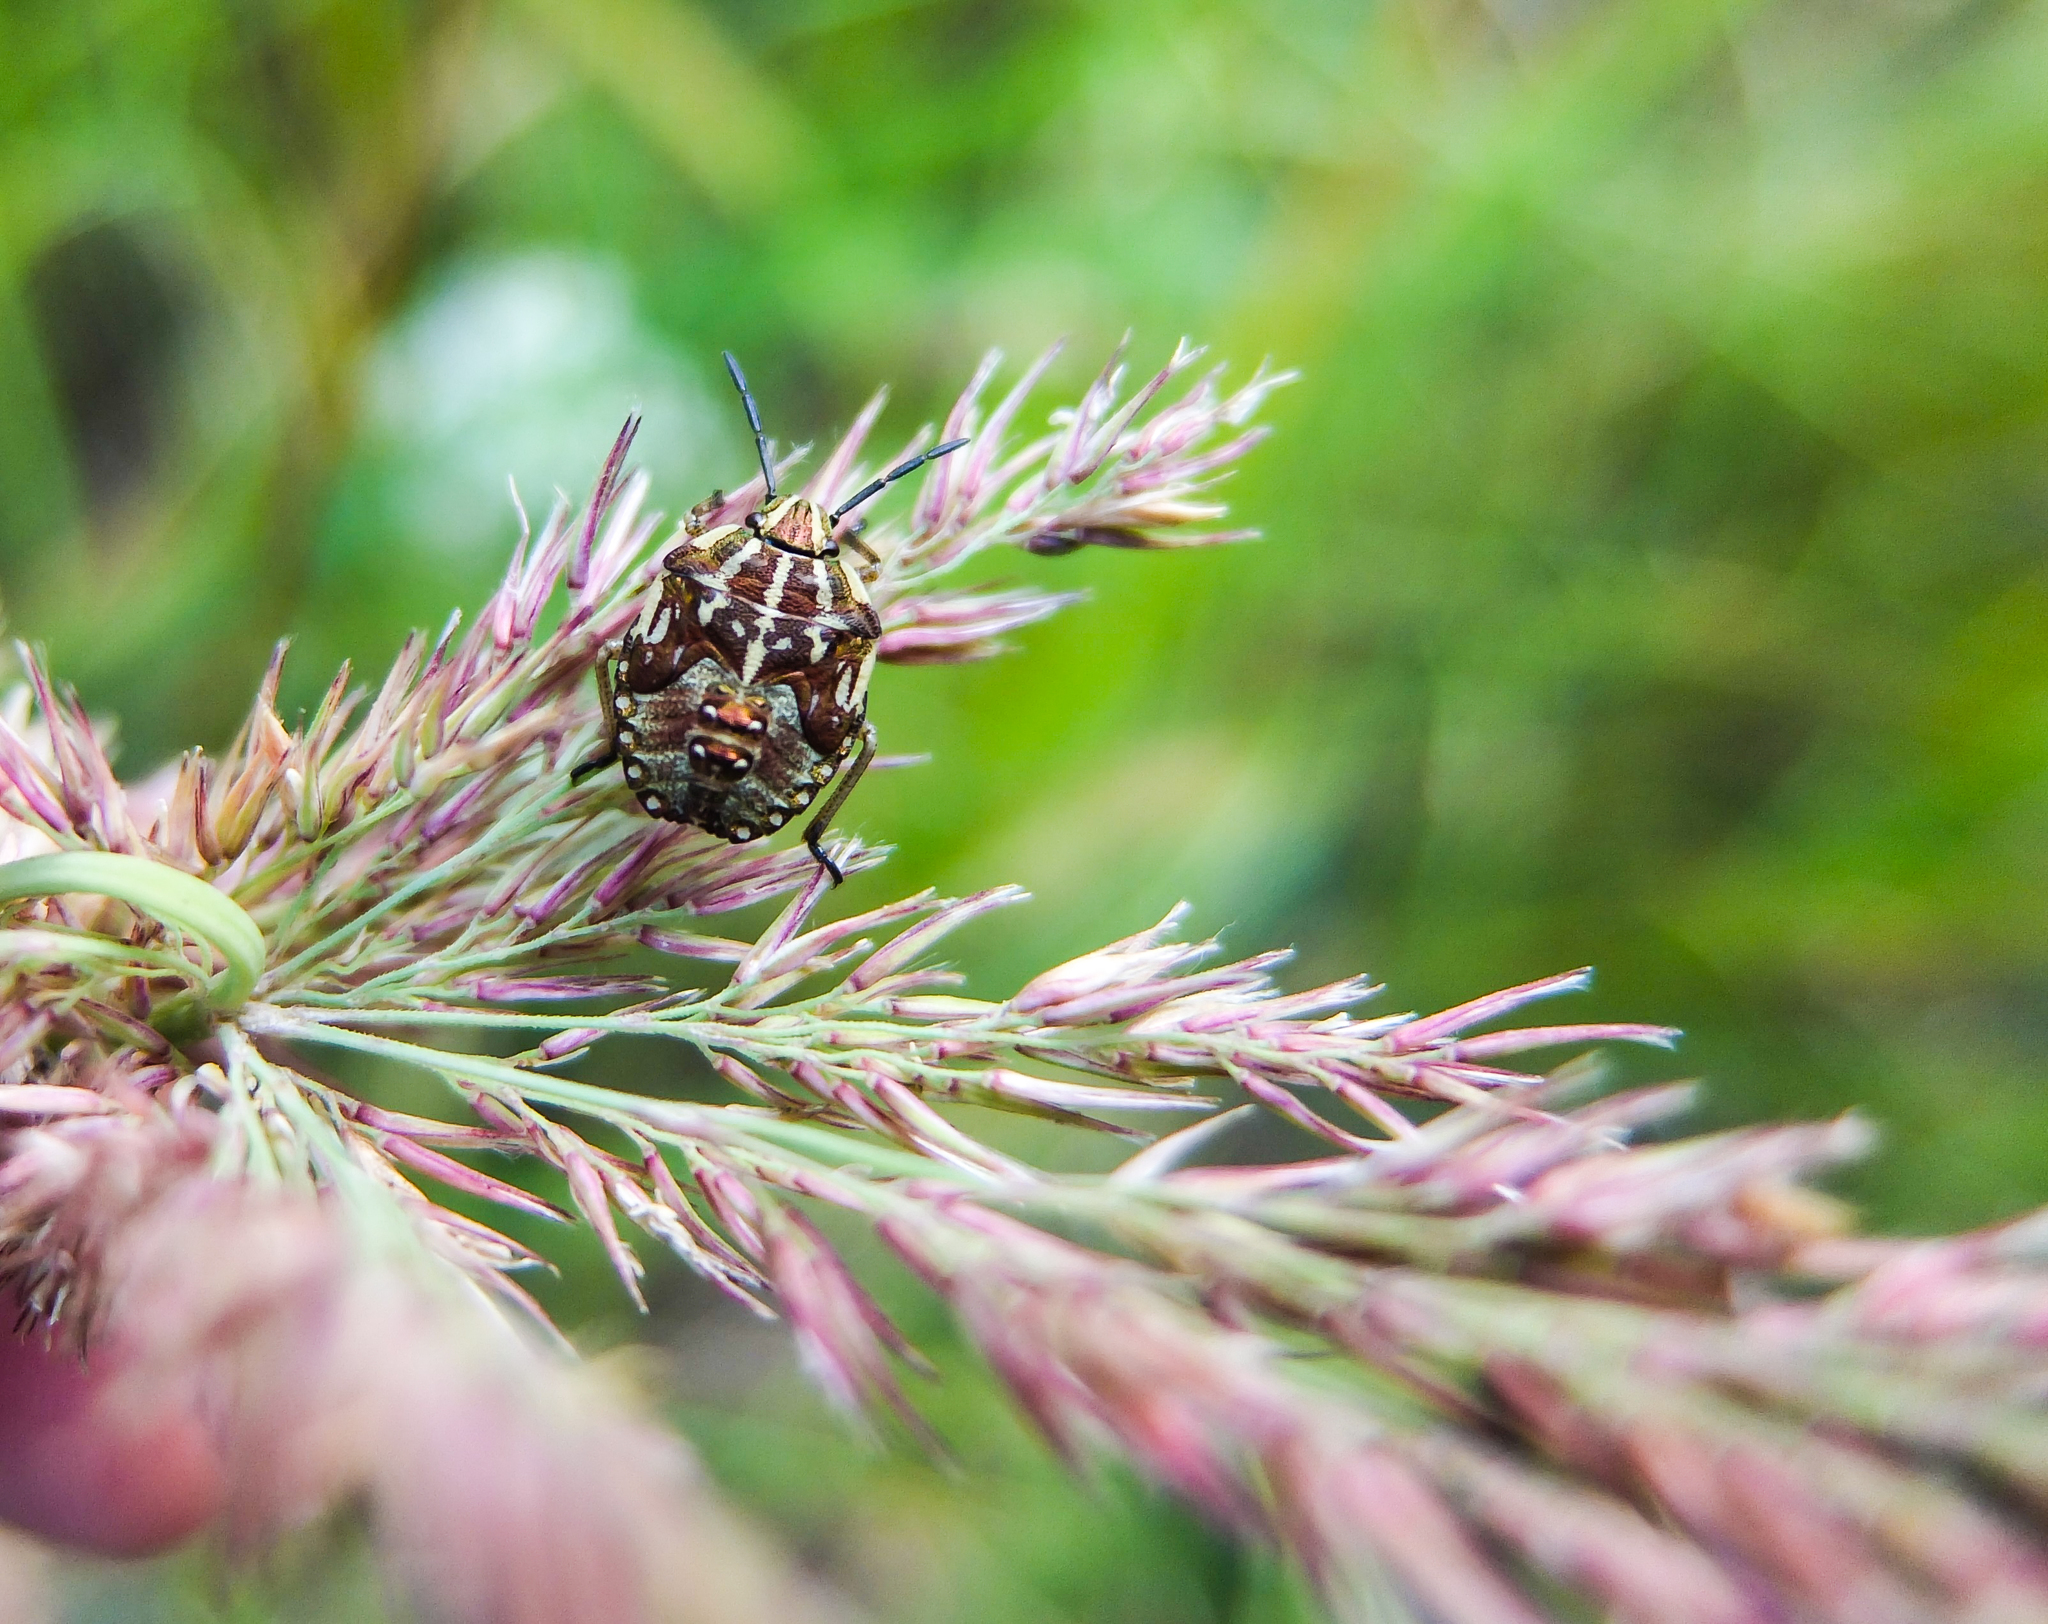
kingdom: Animalia
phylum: Arthropoda
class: Insecta
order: Hemiptera
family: Pentatomidae
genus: Carpocoris
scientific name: Carpocoris purpureipennis
